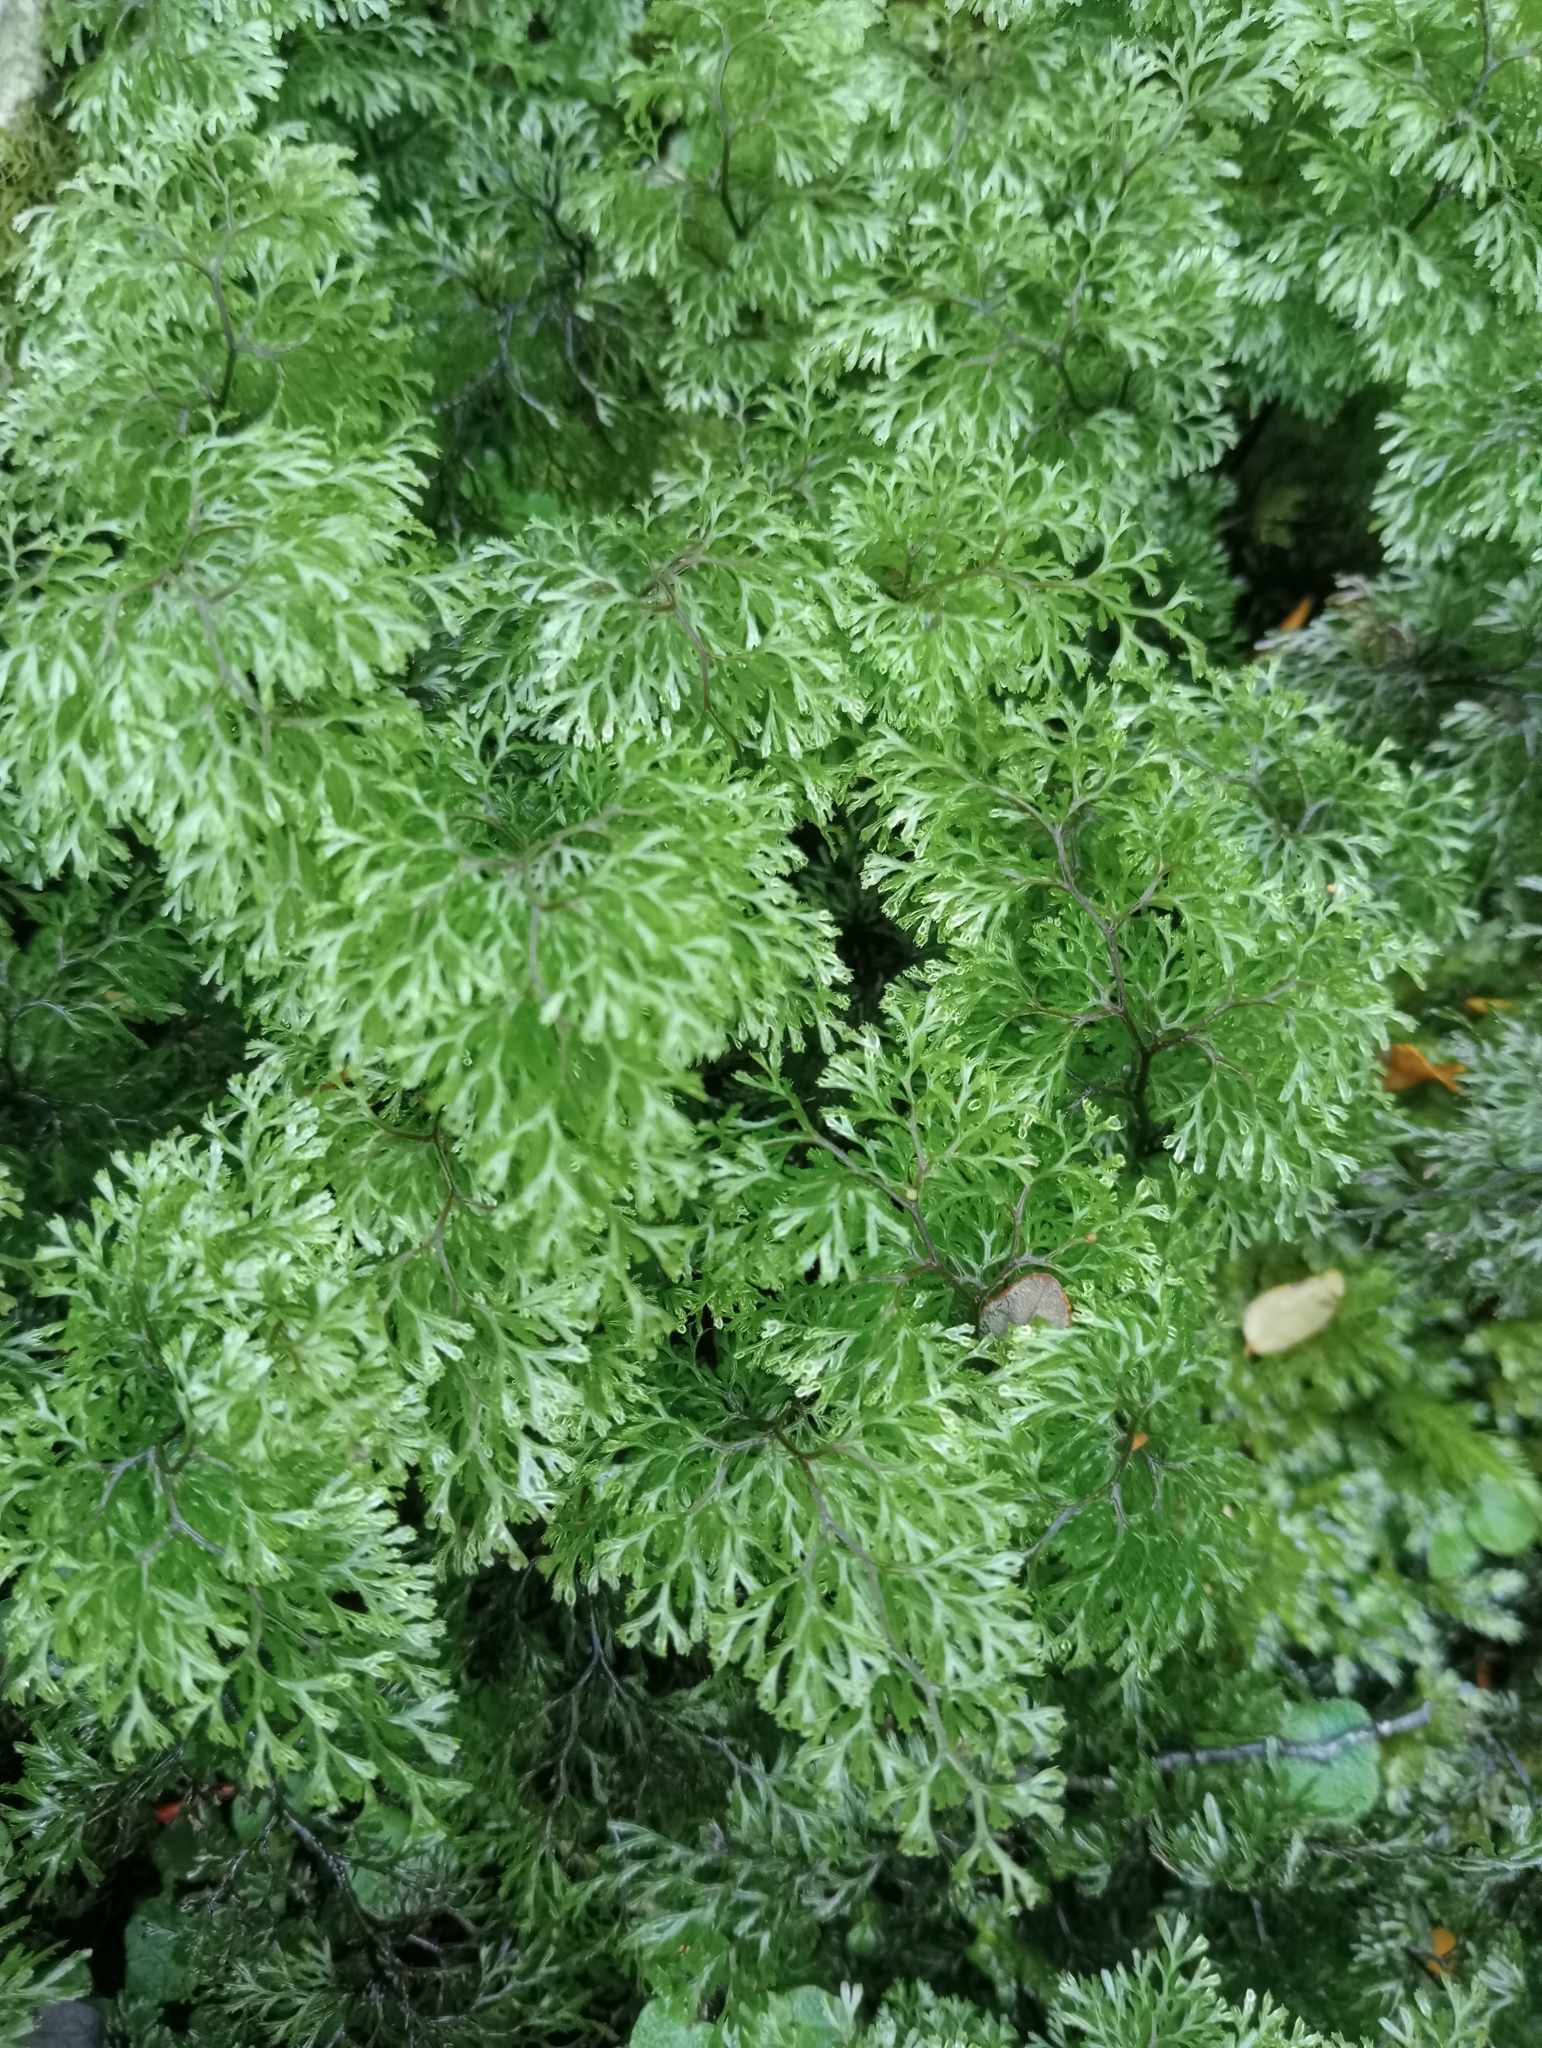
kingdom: Plantae
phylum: Tracheophyta
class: Polypodiopsida
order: Hymenophyllales
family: Hymenophyllaceae
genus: Hymenophyllum
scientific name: Hymenophyllum multifidum
